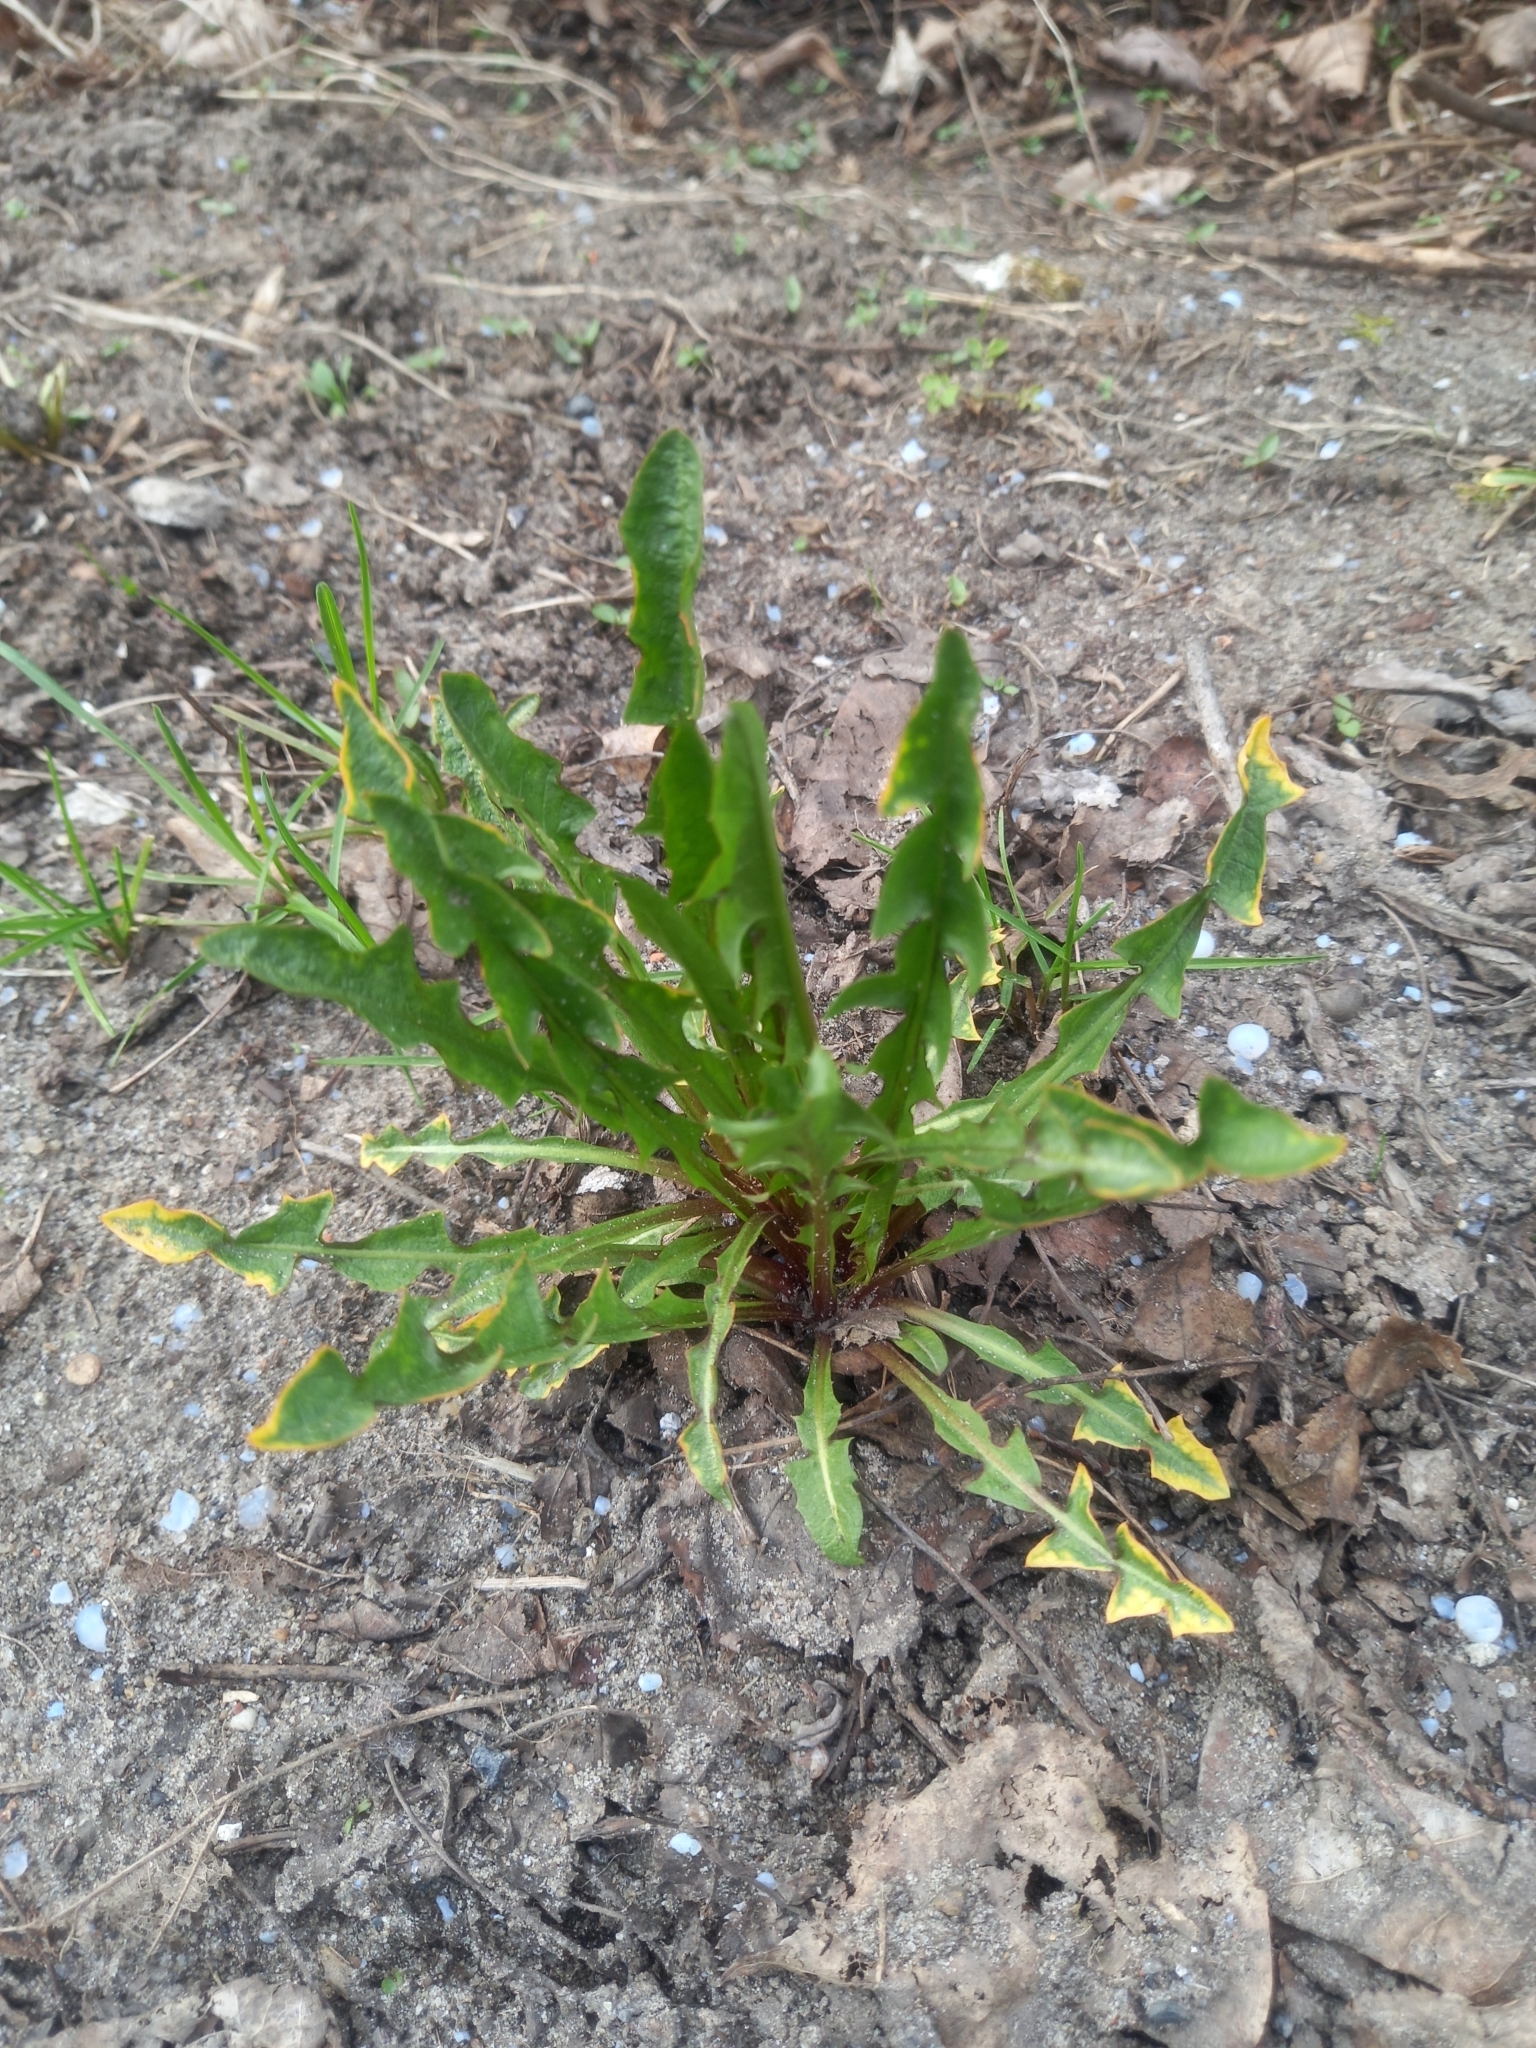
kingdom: Plantae
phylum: Tracheophyta
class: Magnoliopsida
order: Asterales
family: Asteraceae
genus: Taraxacum
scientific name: Taraxacum officinale
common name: Common dandelion
